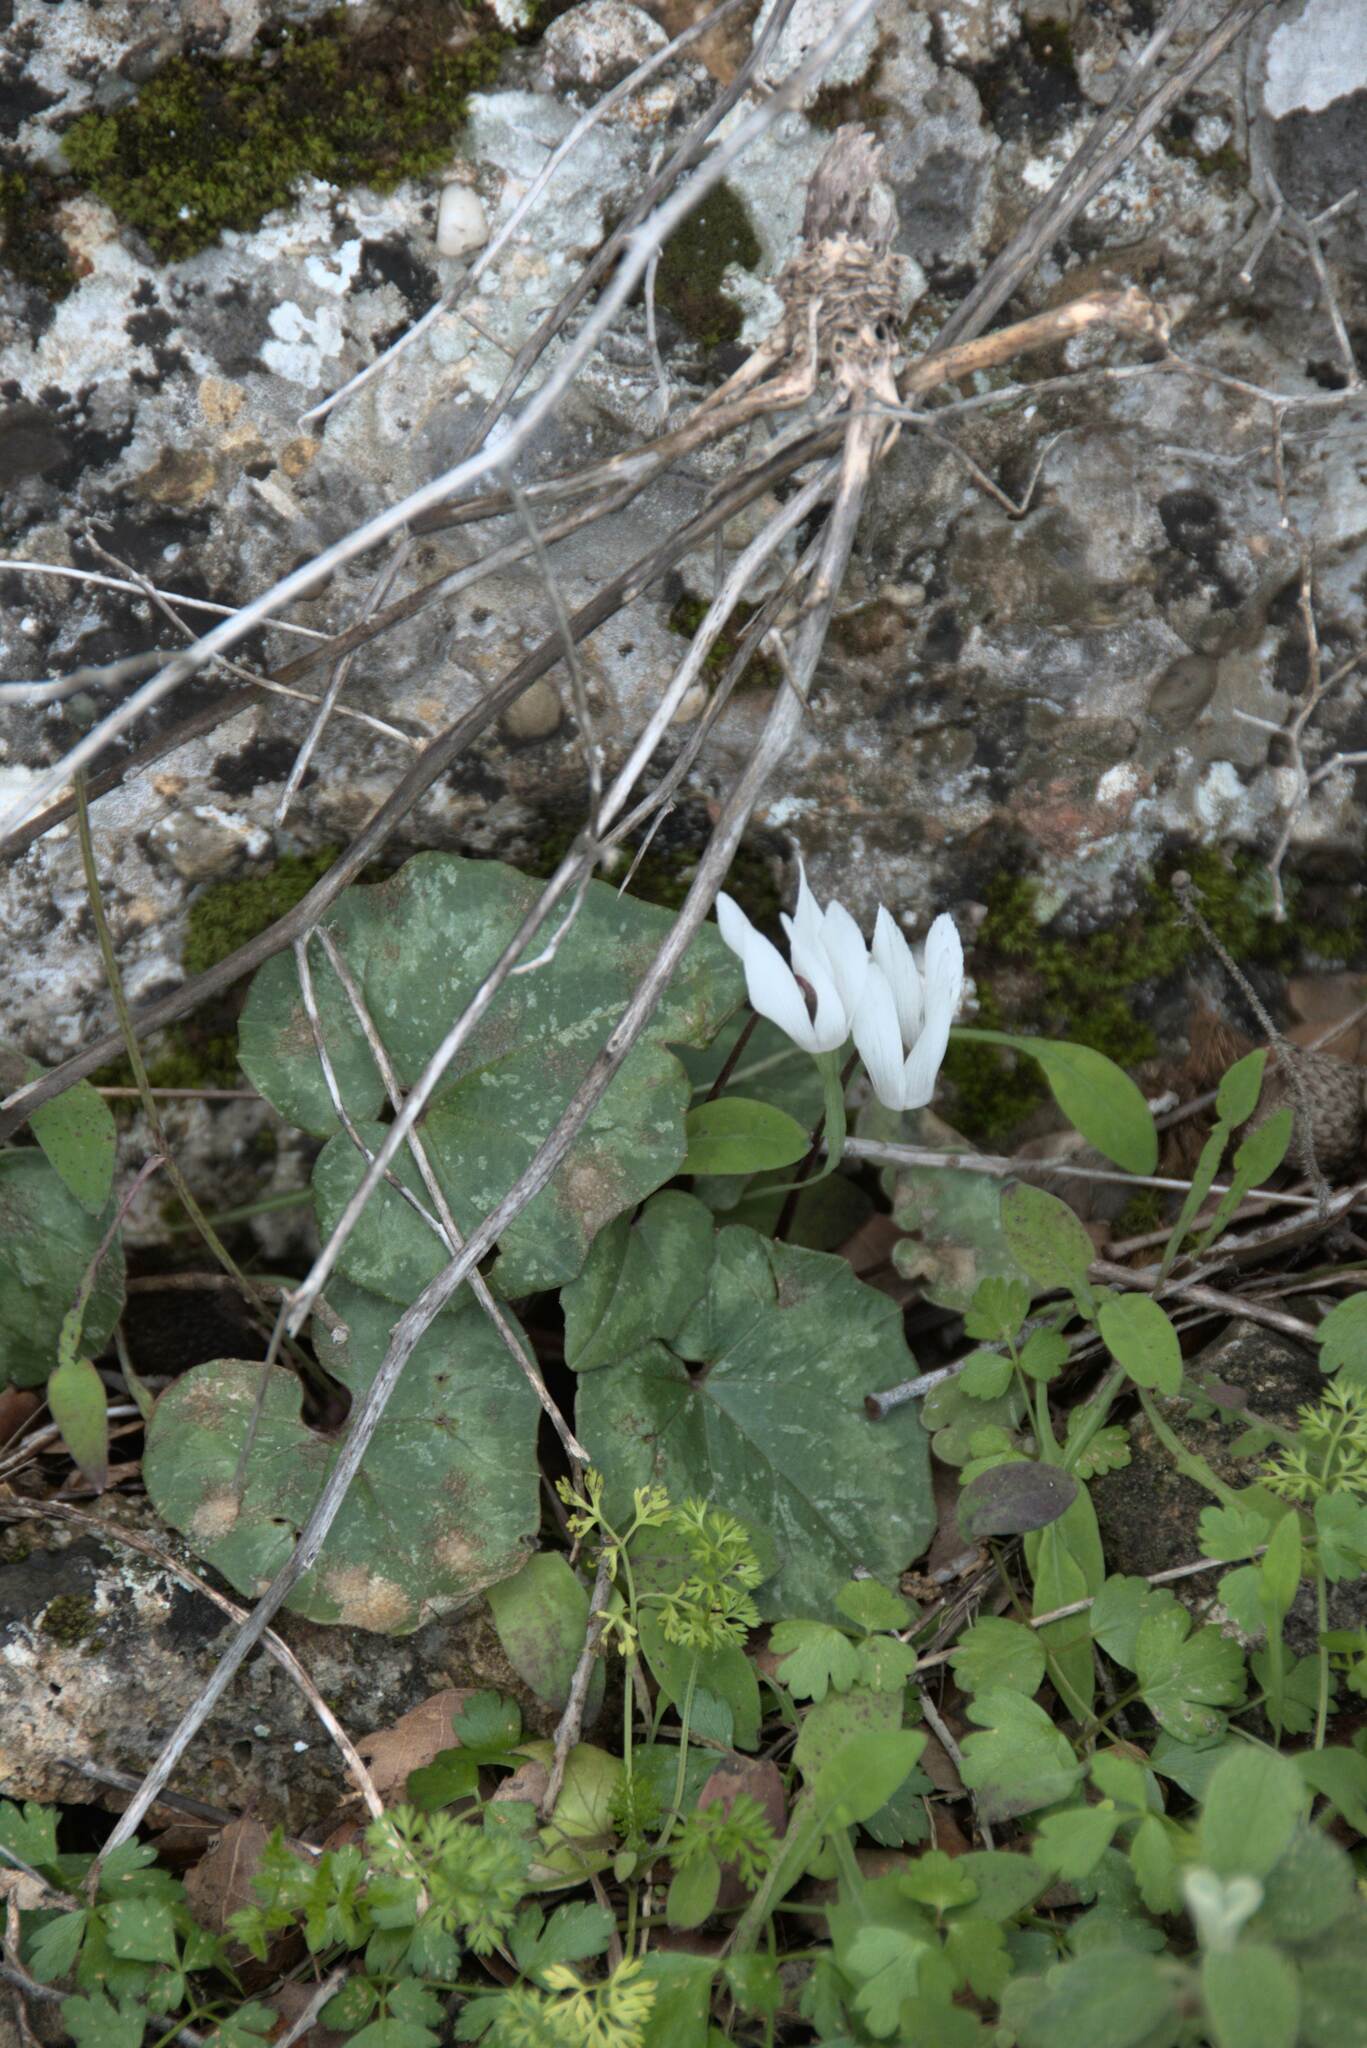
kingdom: Plantae
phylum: Tracheophyta
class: Magnoliopsida
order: Ericales
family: Primulaceae
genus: Cyclamen
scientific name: Cyclamen creticum
